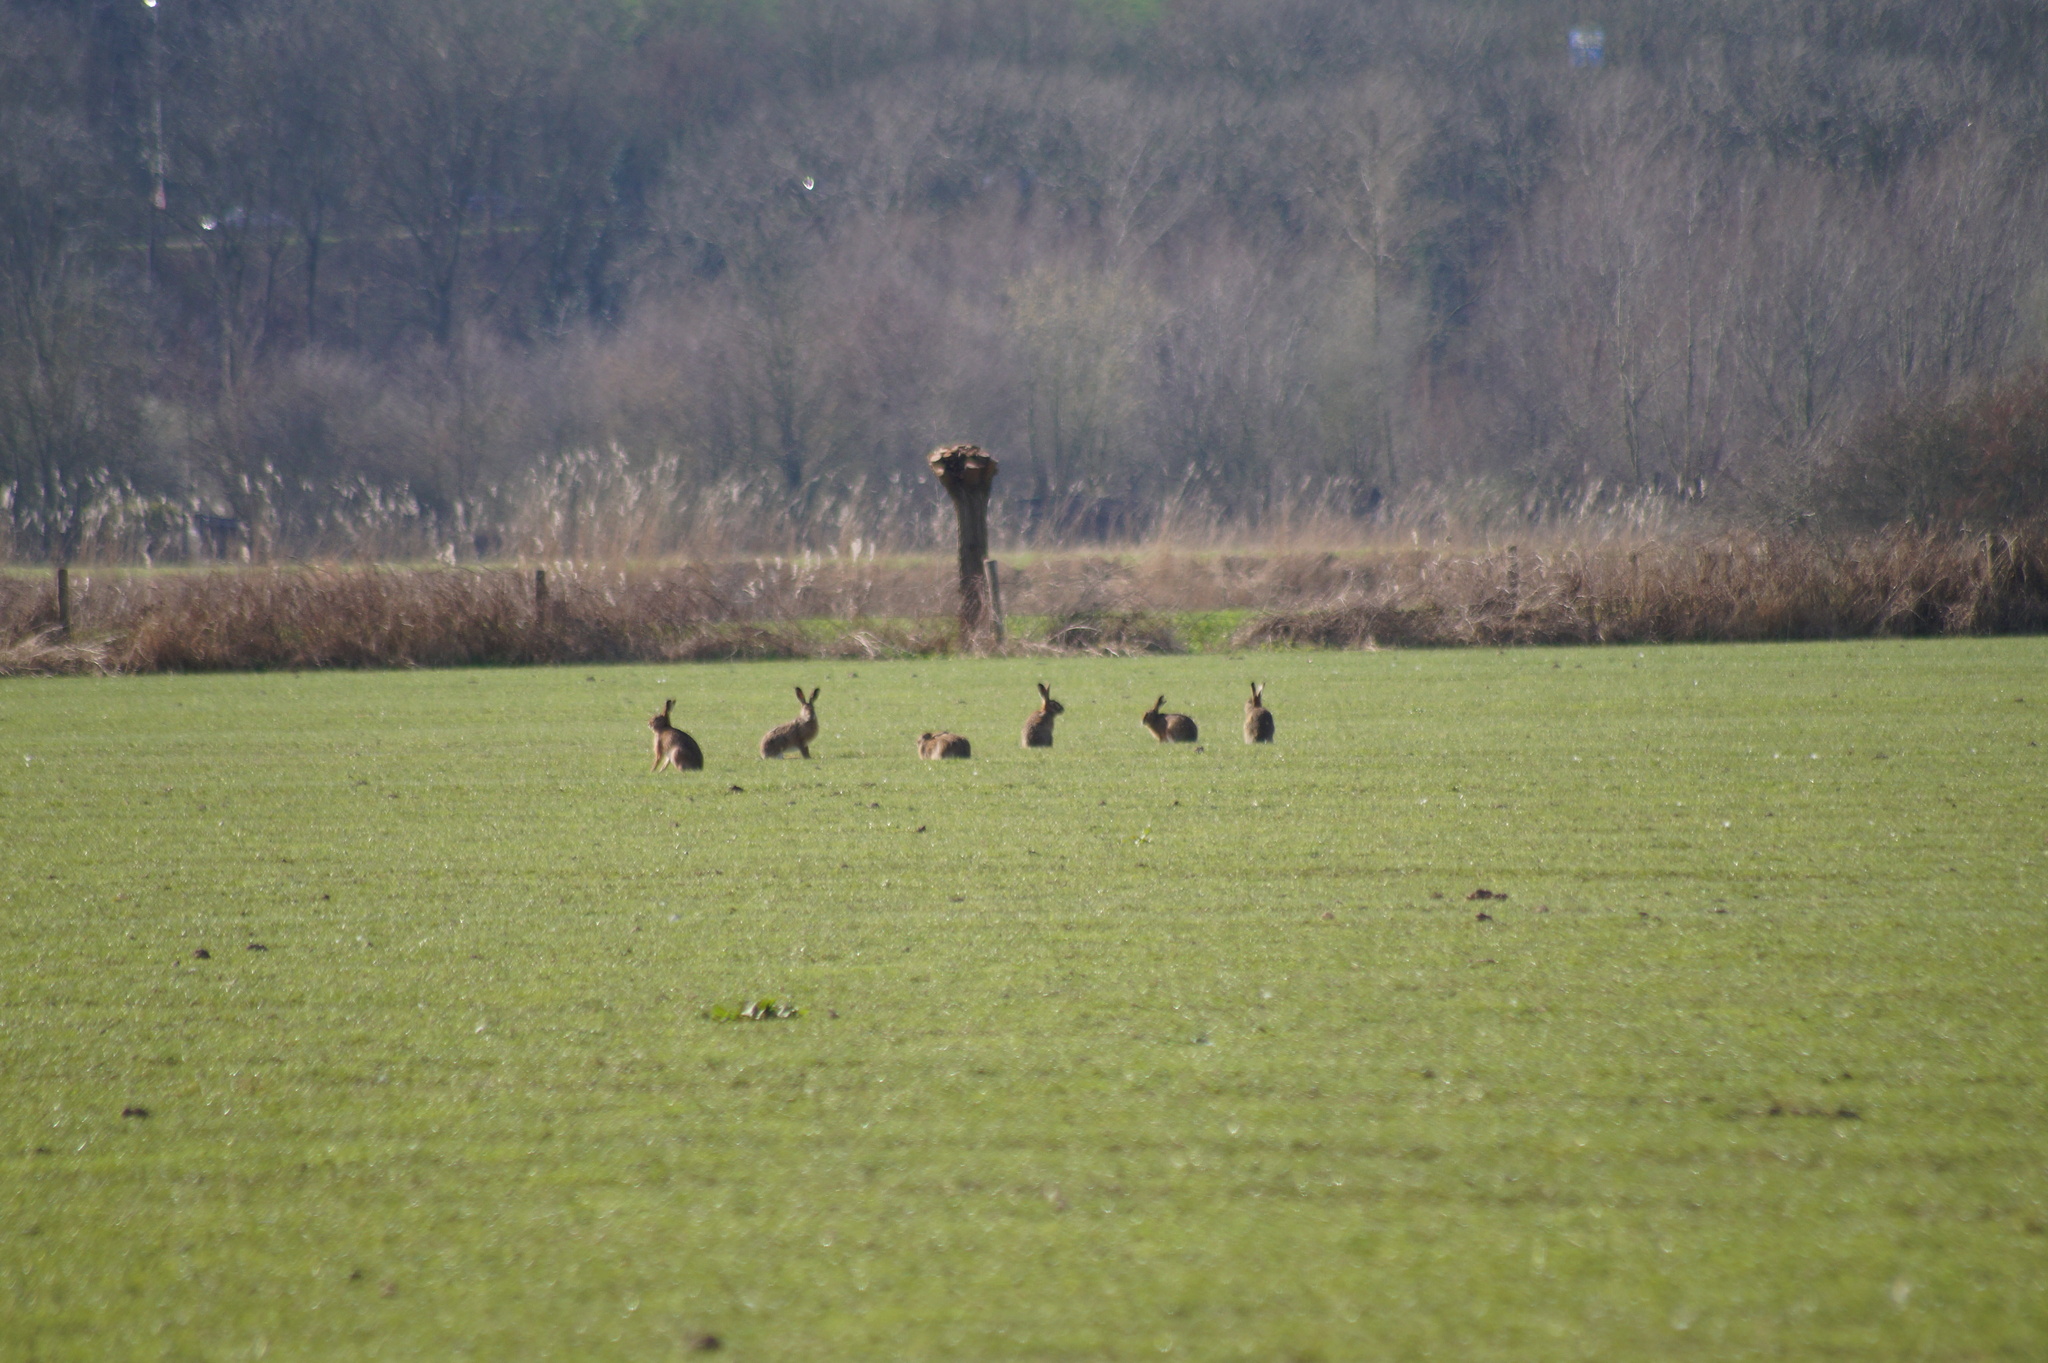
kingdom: Animalia
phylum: Chordata
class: Mammalia
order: Lagomorpha
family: Leporidae
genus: Lepus
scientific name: Lepus europaeus
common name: European hare
